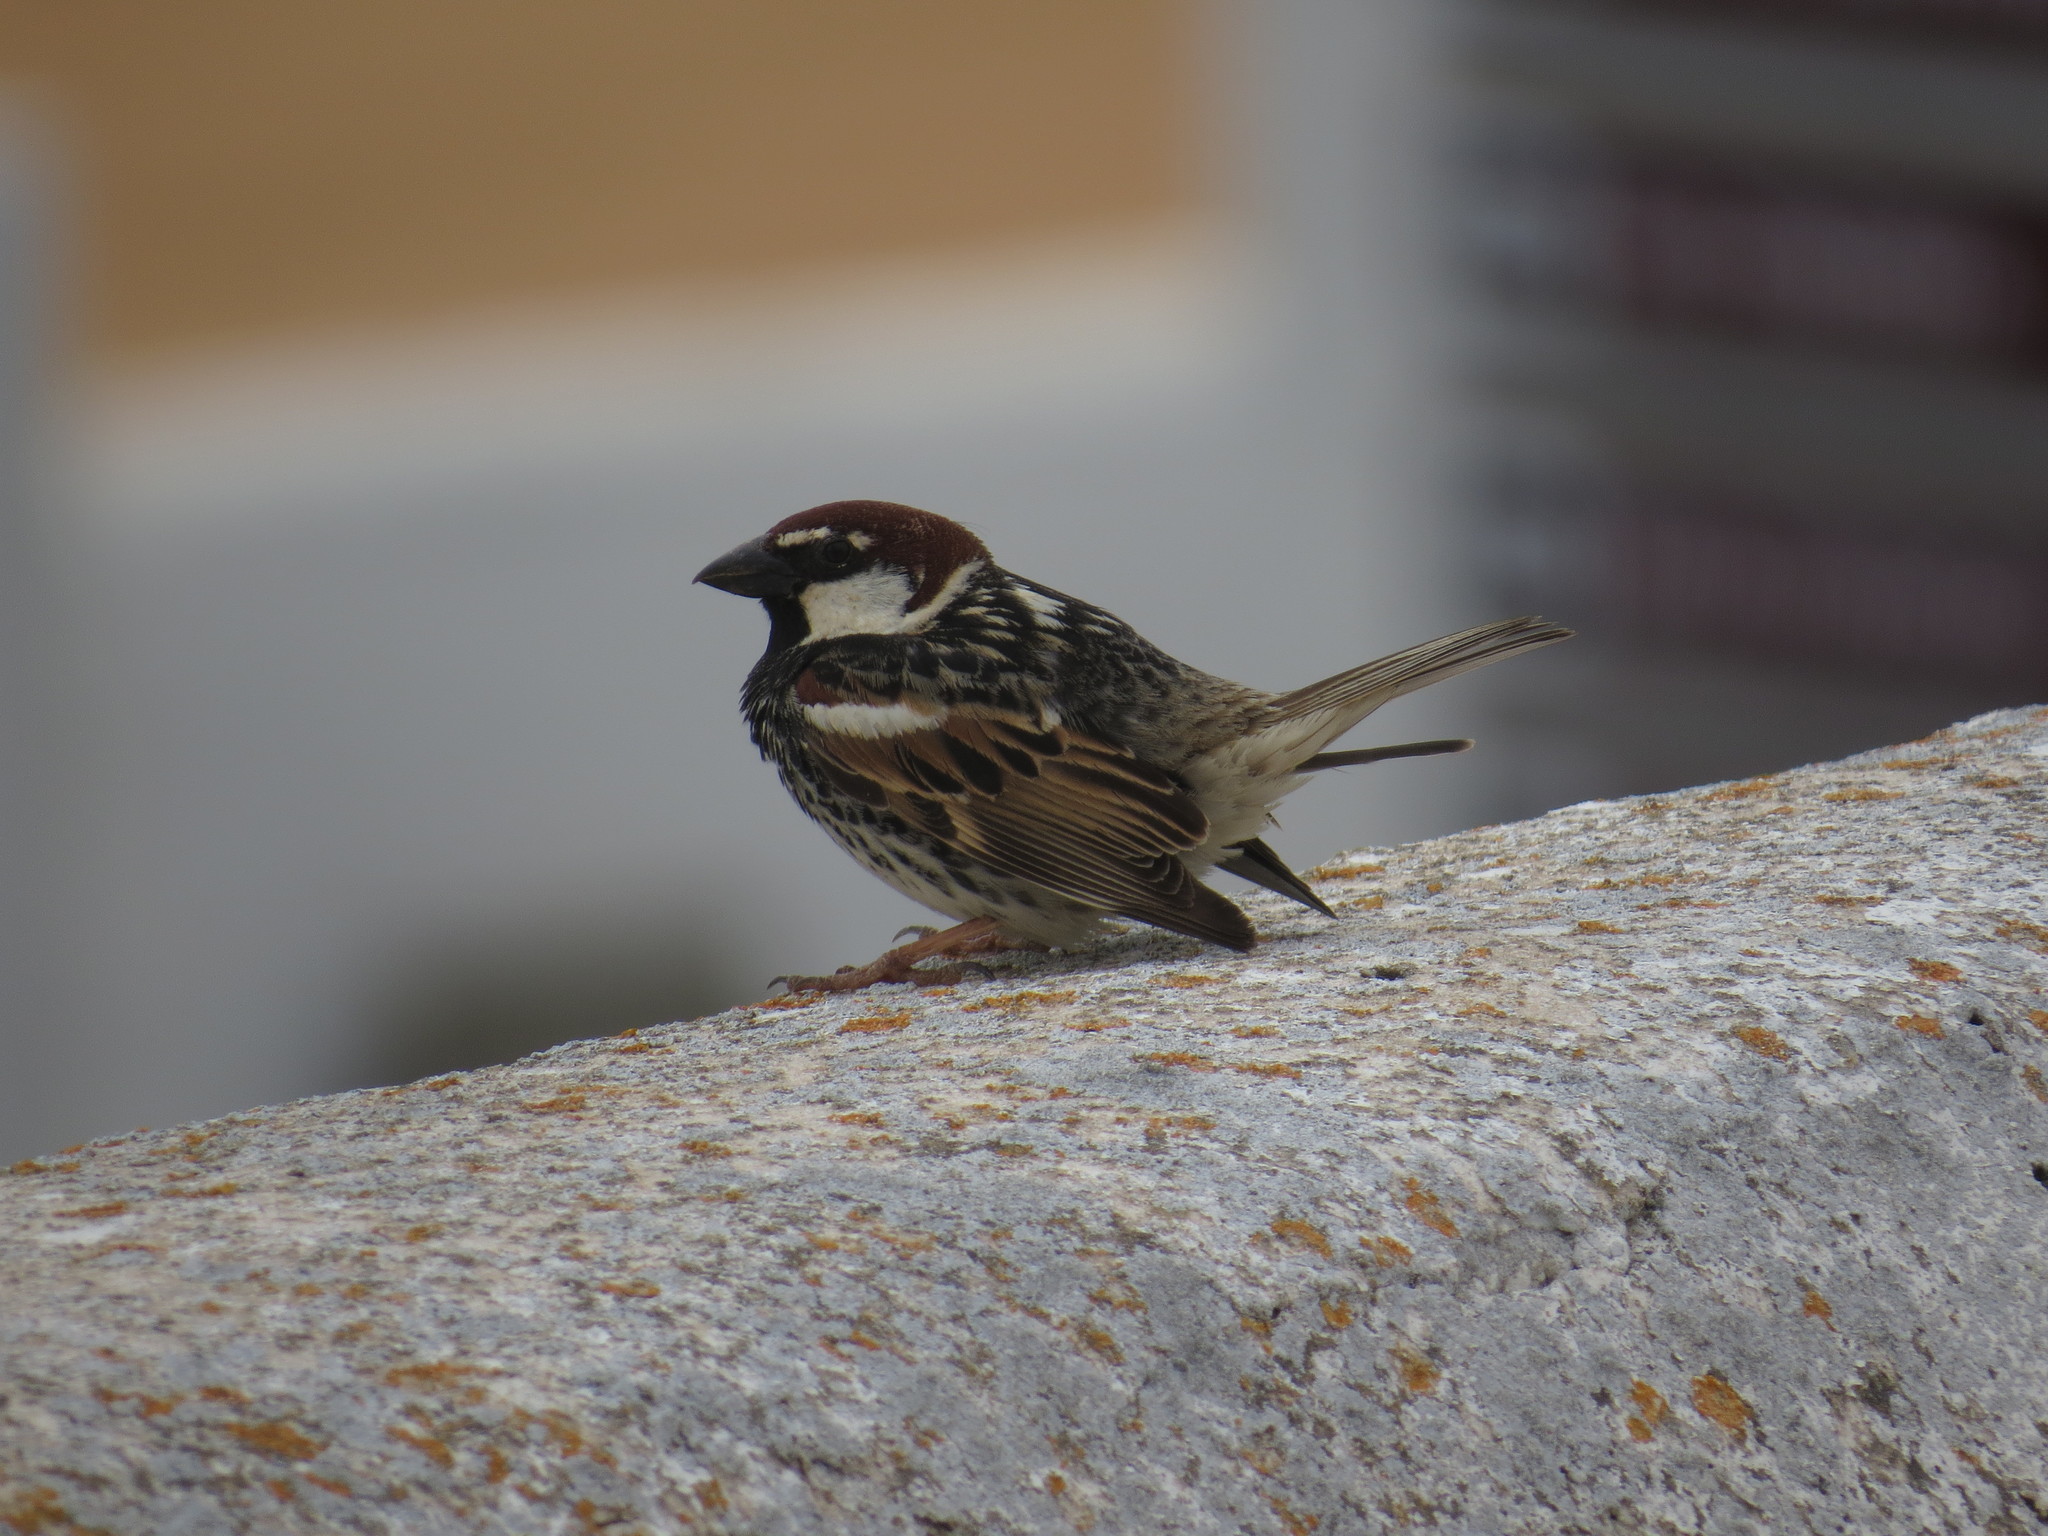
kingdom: Animalia
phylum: Chordata
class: Aves
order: Passeriformes
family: Passeridae
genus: Passer
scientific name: Passer hispaniolensis
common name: Spanish sparrow
